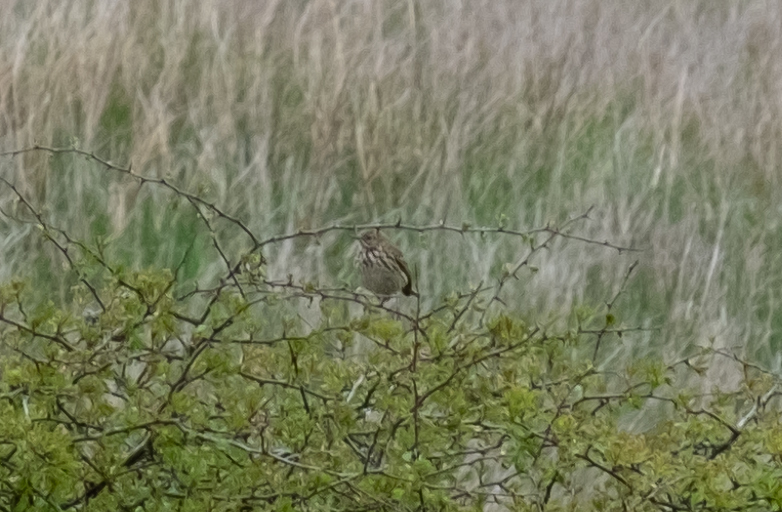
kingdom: Animalia
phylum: Chordata
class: Aves
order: Passeriformes
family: Motacillidae
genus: Anthus
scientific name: Anthus pratensis
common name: Meadow pipit
